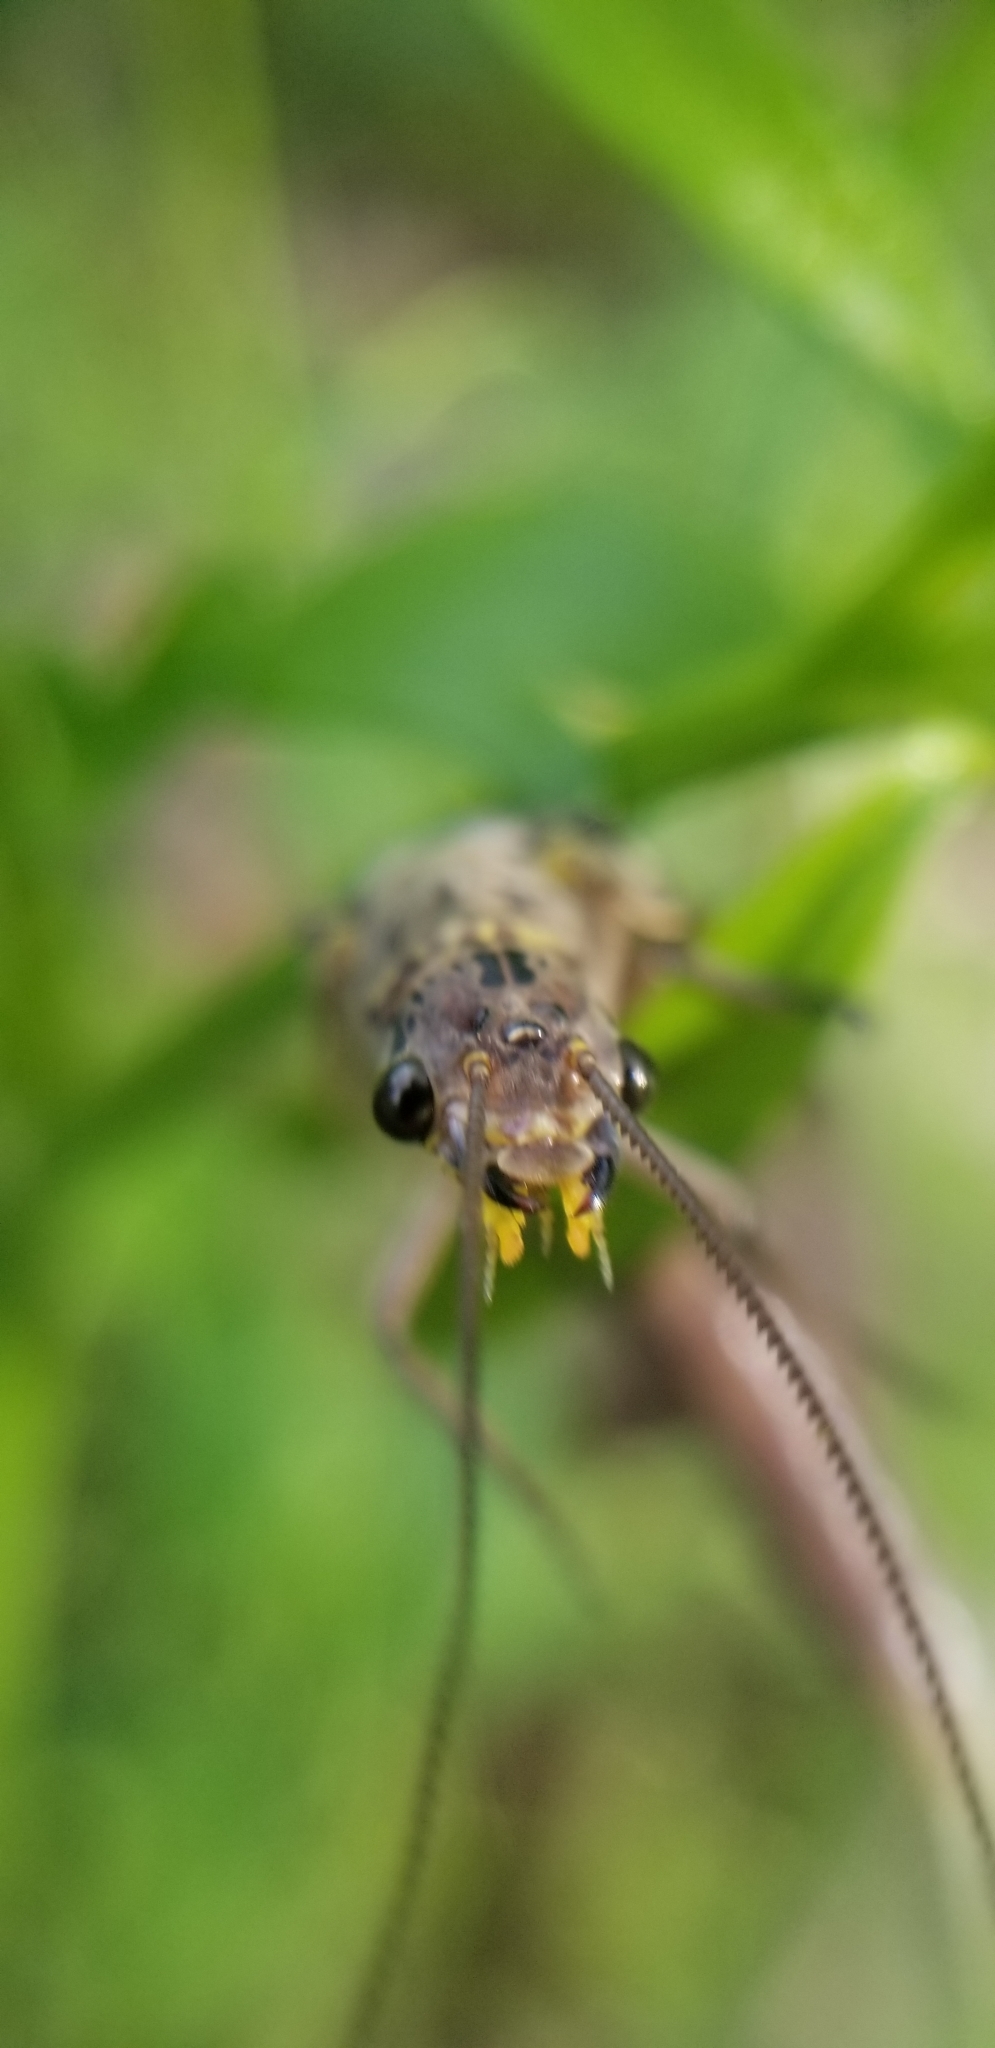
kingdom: Animalia
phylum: Arthropoda
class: Insecta
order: Megaloptera
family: Corydalidae
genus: Chauliodes
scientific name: Chauliodes rastricornis
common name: Spring fishfly
